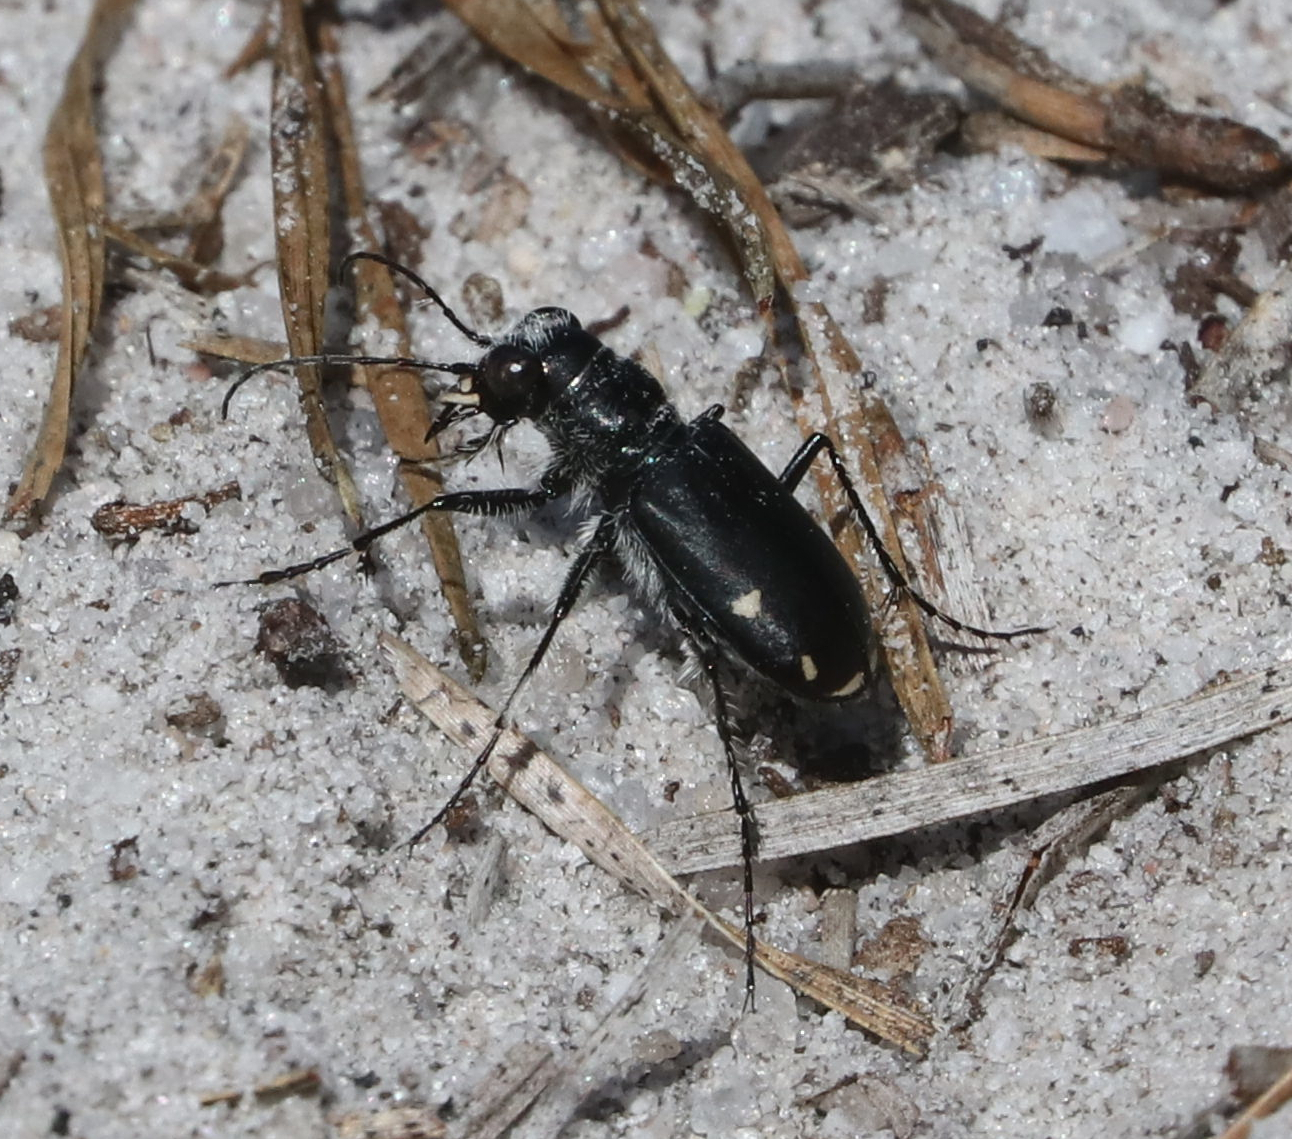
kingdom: Animalia
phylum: Arthropoda
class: Insecta
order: Coleoptera
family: Carabidae
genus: Cicindela
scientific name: Cicindela scutellaris
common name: Festive tiger beetle
